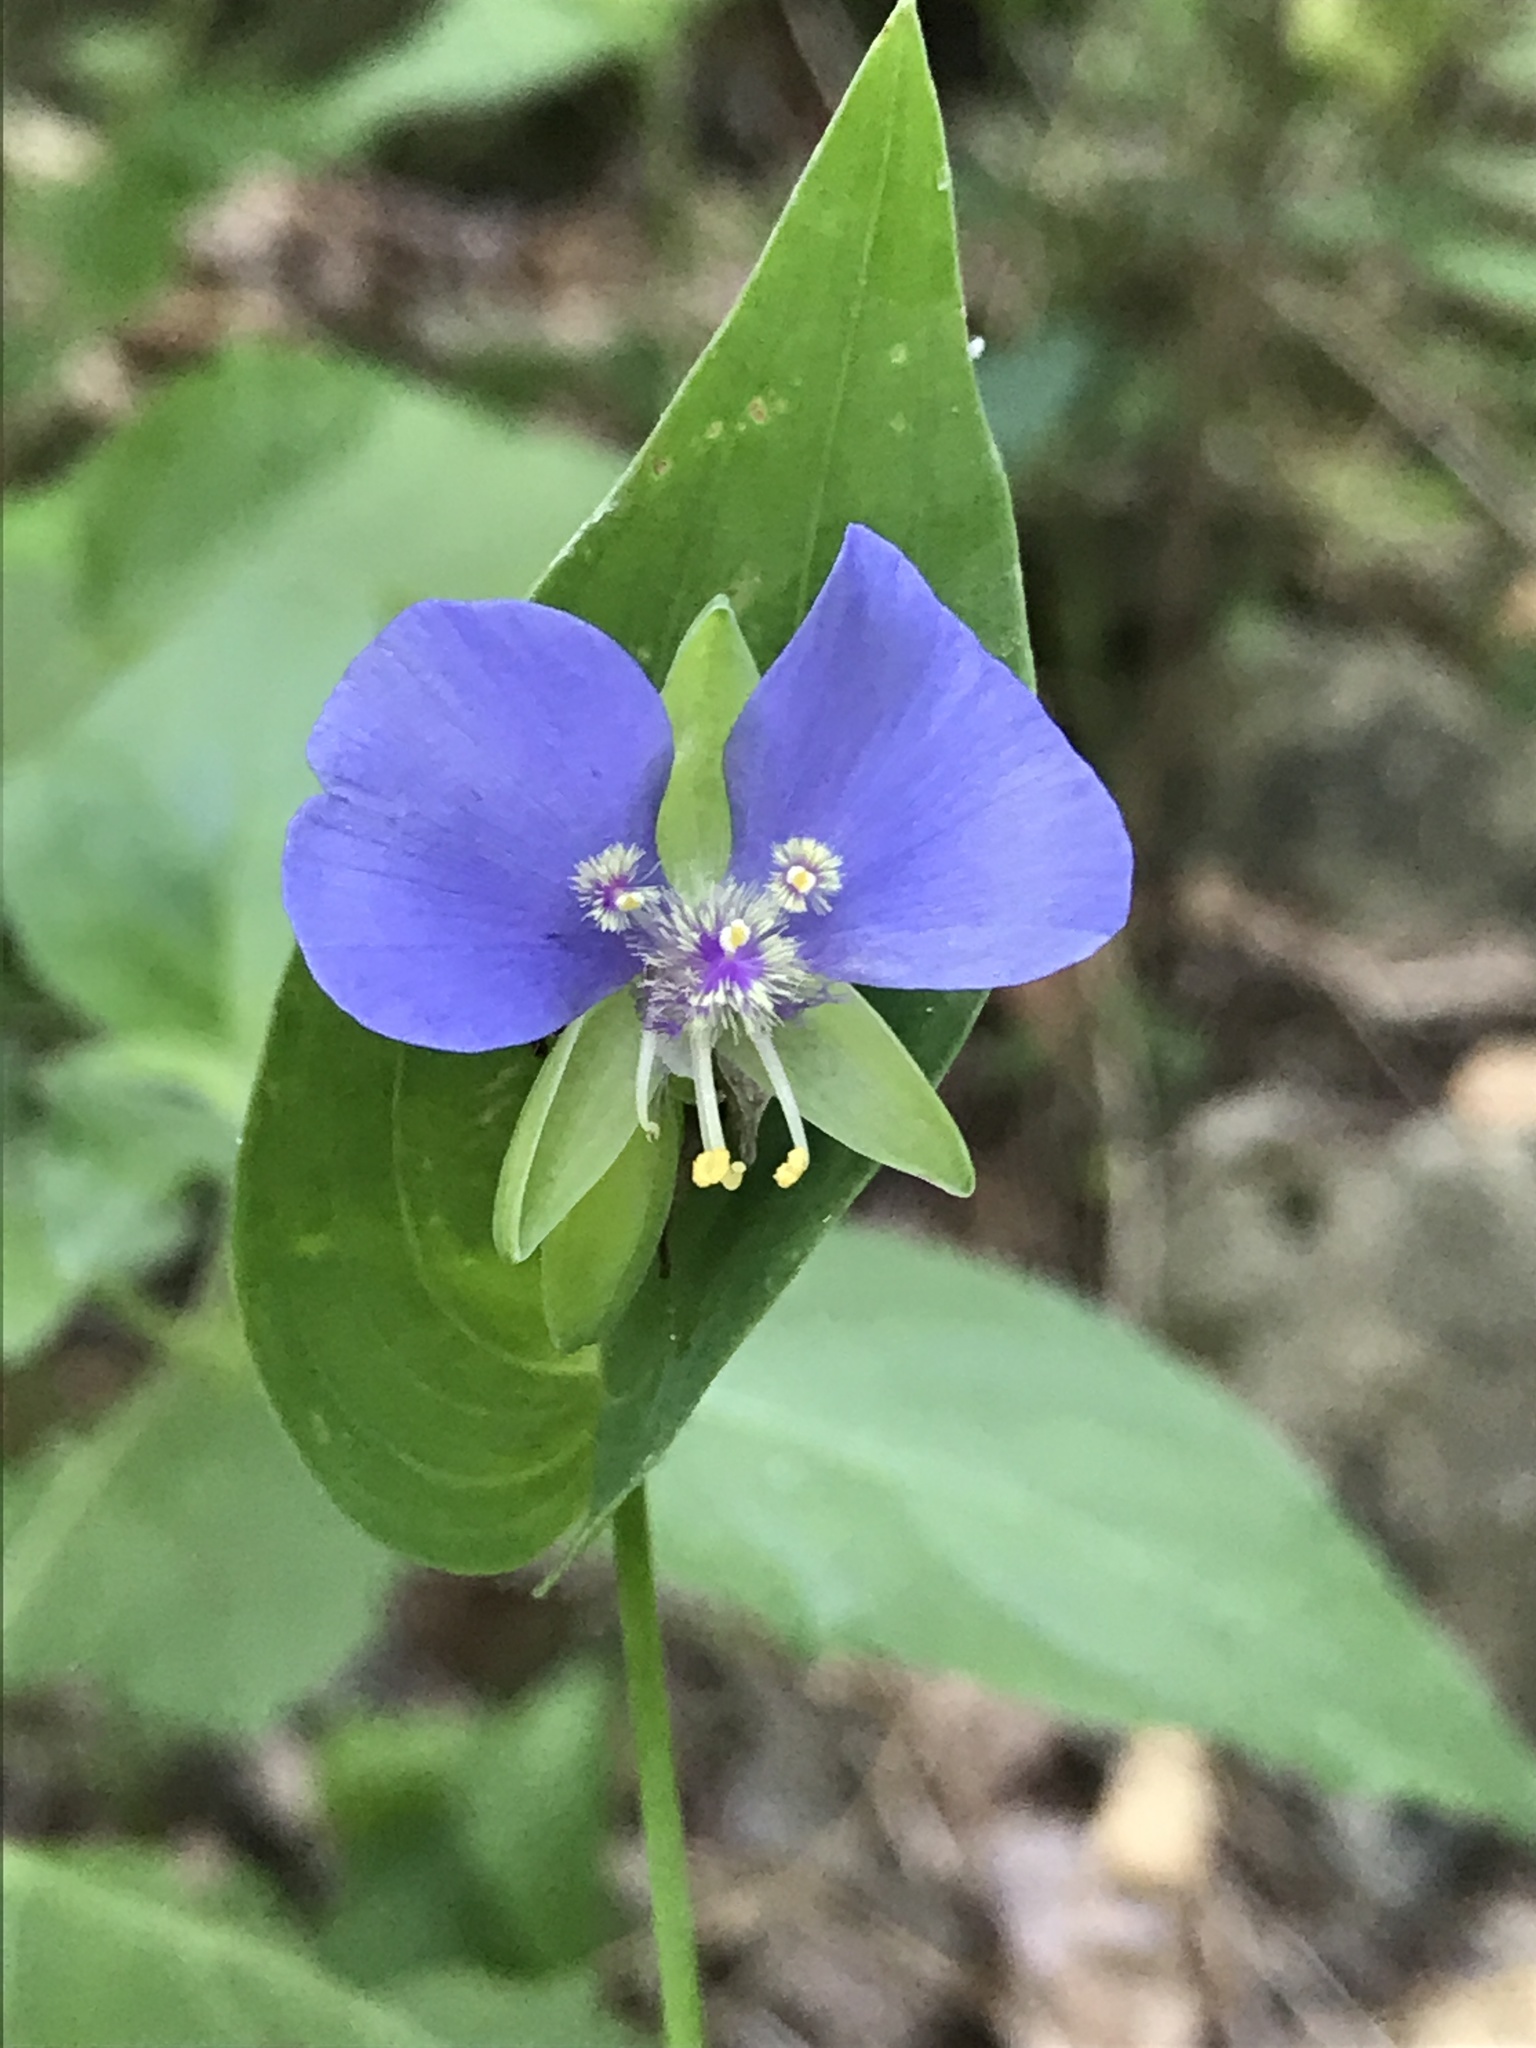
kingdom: Plantae
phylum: Tracheophyta
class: Liliopsida
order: Commelinales
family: Commelinaceae
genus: Tinantia
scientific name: Tinantia anomala
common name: False dayflower
